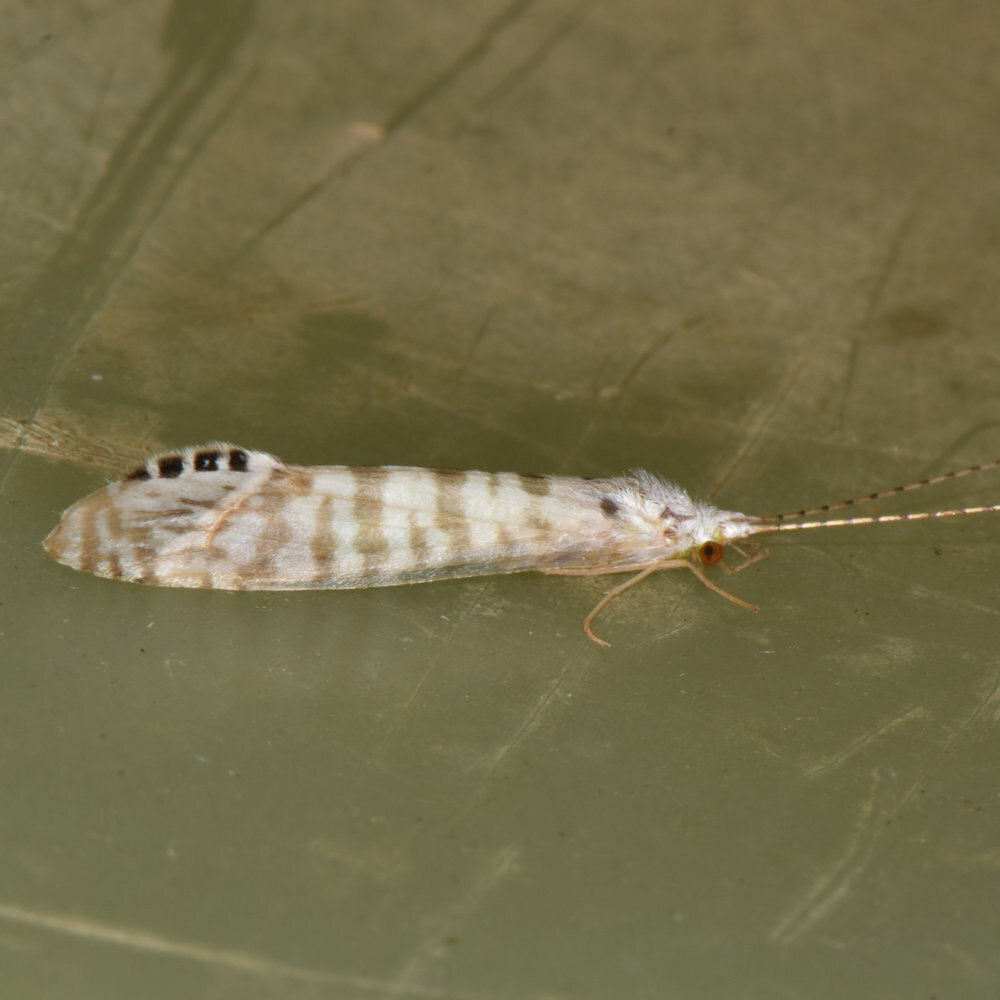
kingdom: Animalia
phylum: Arthropoda
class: Insecta
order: Trichoptera
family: Leptoceridae
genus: Nectopsyche
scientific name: Nectopsyche exquisita
